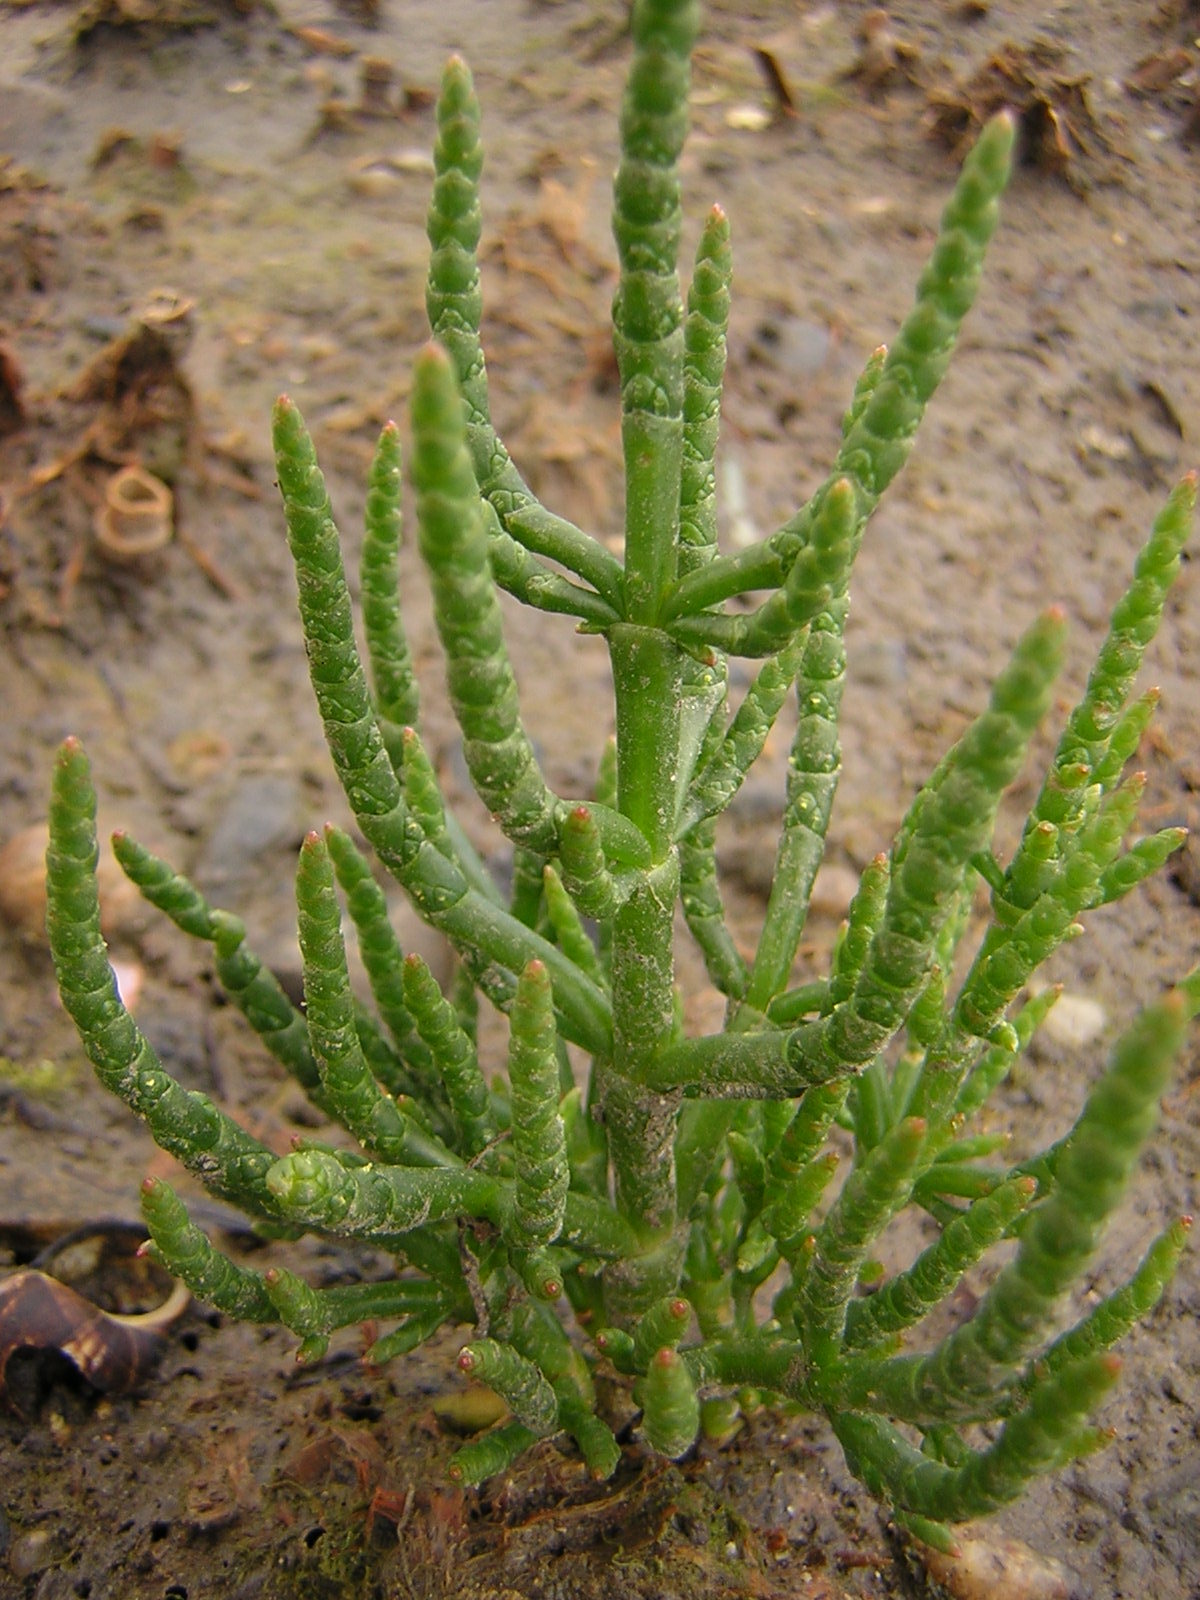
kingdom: Plantae
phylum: Tracheophyta
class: Magnoliopsida
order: Caryophyllales
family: Amaranthaceae
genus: Salicornia
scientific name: Salicornia europaea
